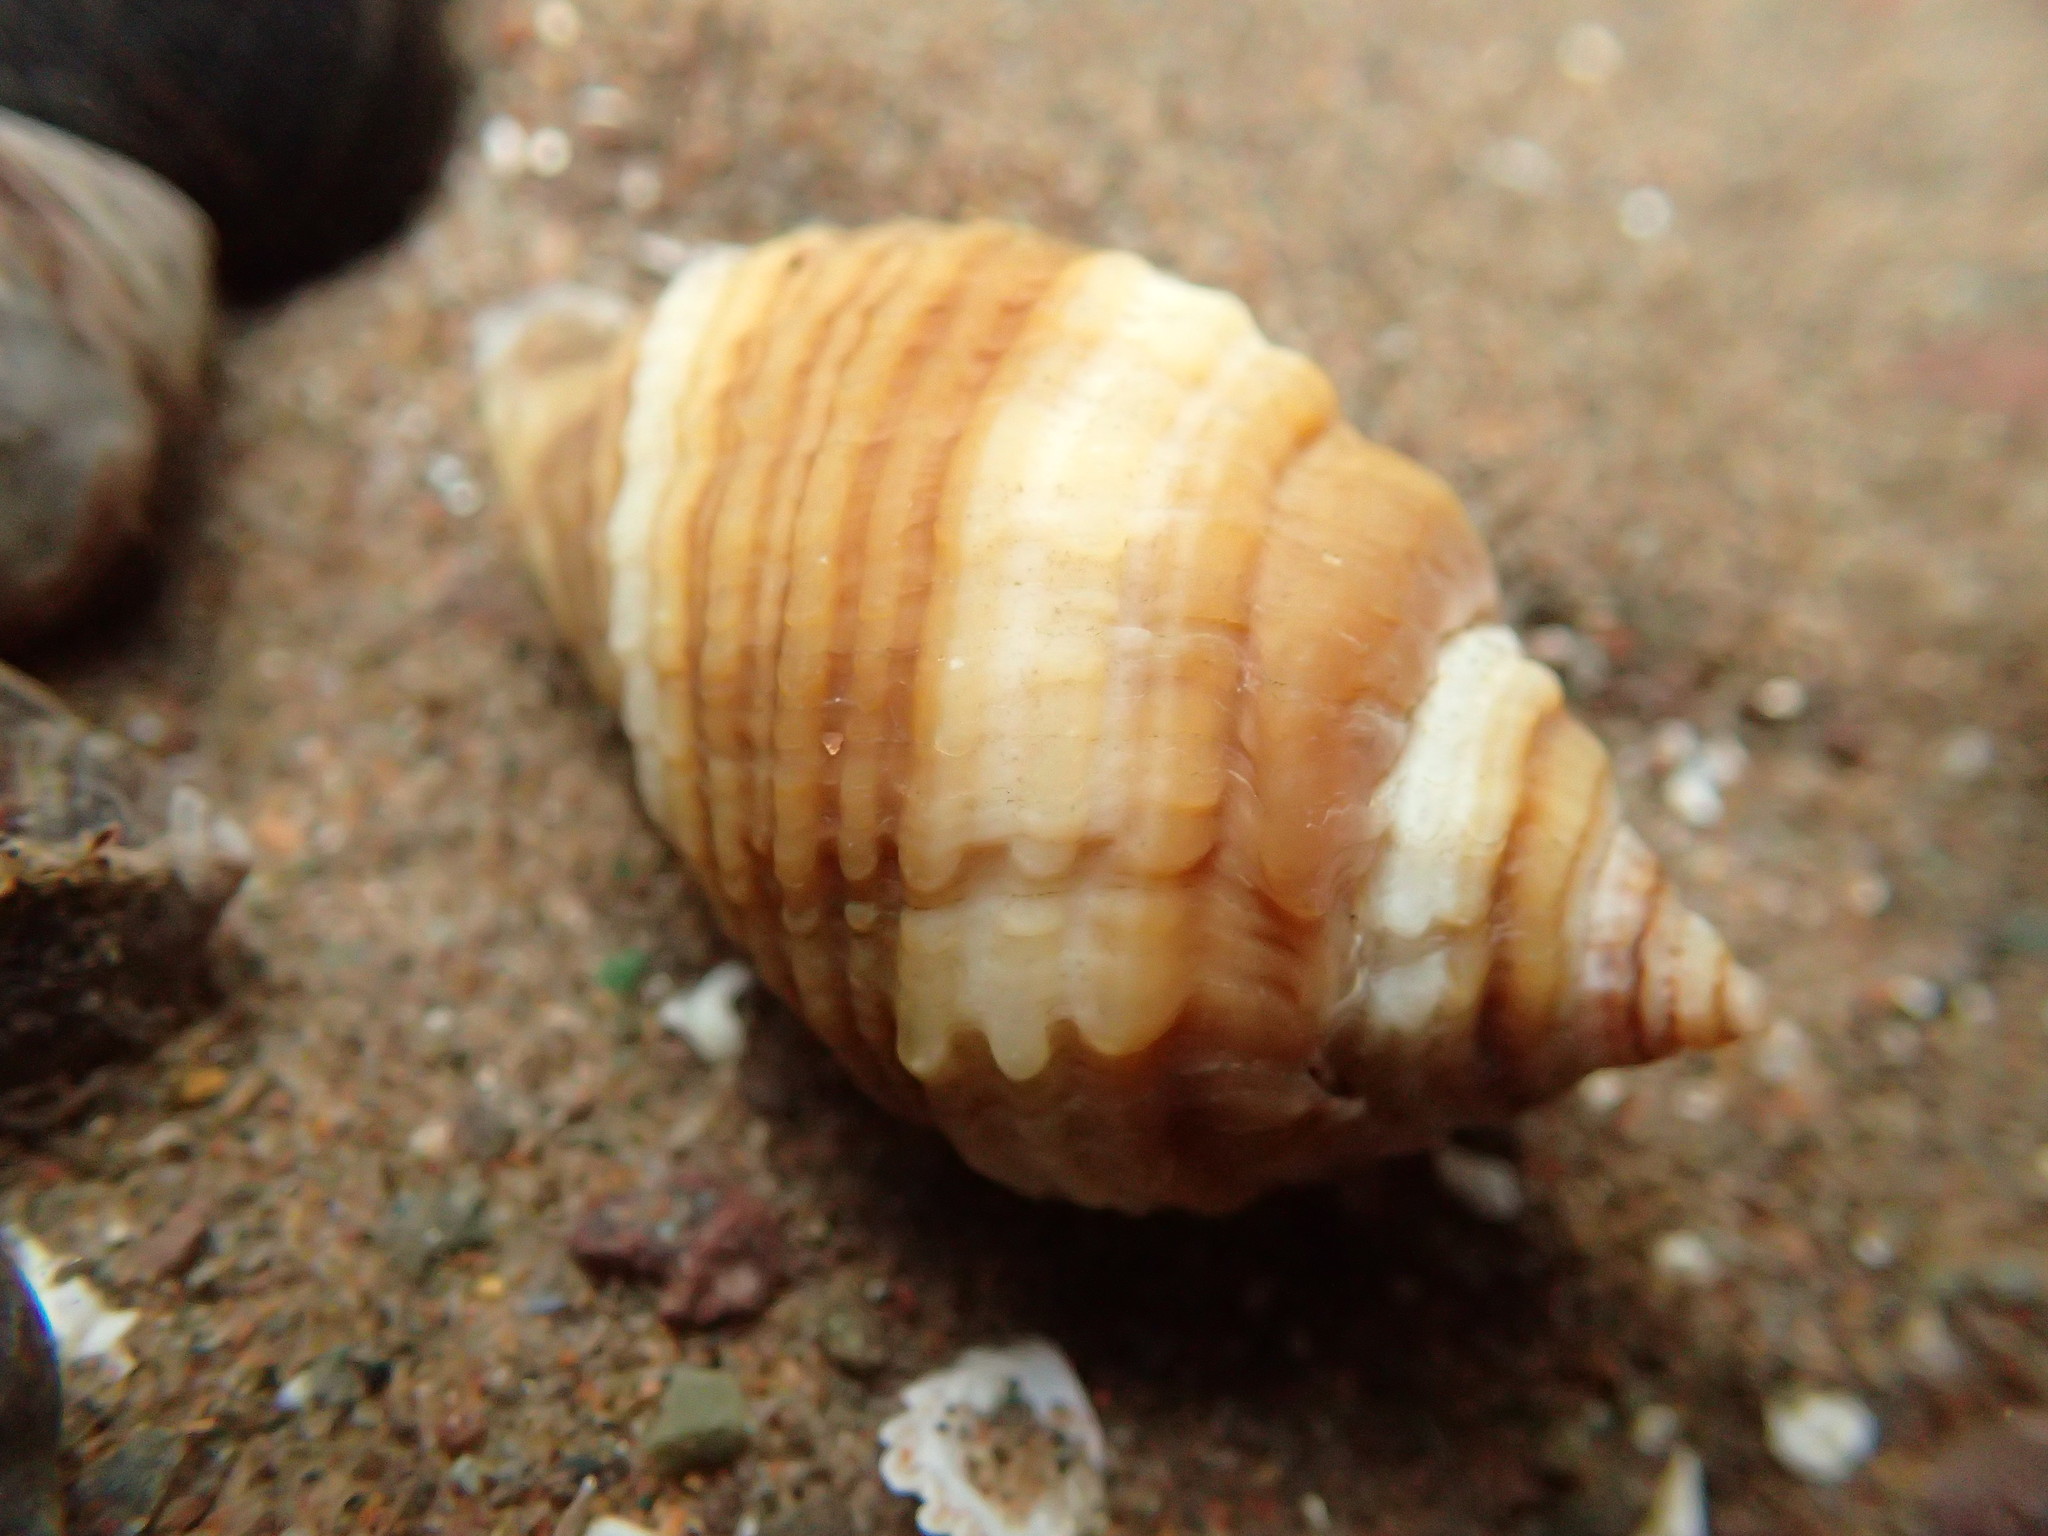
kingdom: Animalia
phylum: Mollusca
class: Gastropoda
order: Neogastropoda
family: Muricidae
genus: Nucella
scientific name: Nucella lapillus
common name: Dog whelk
